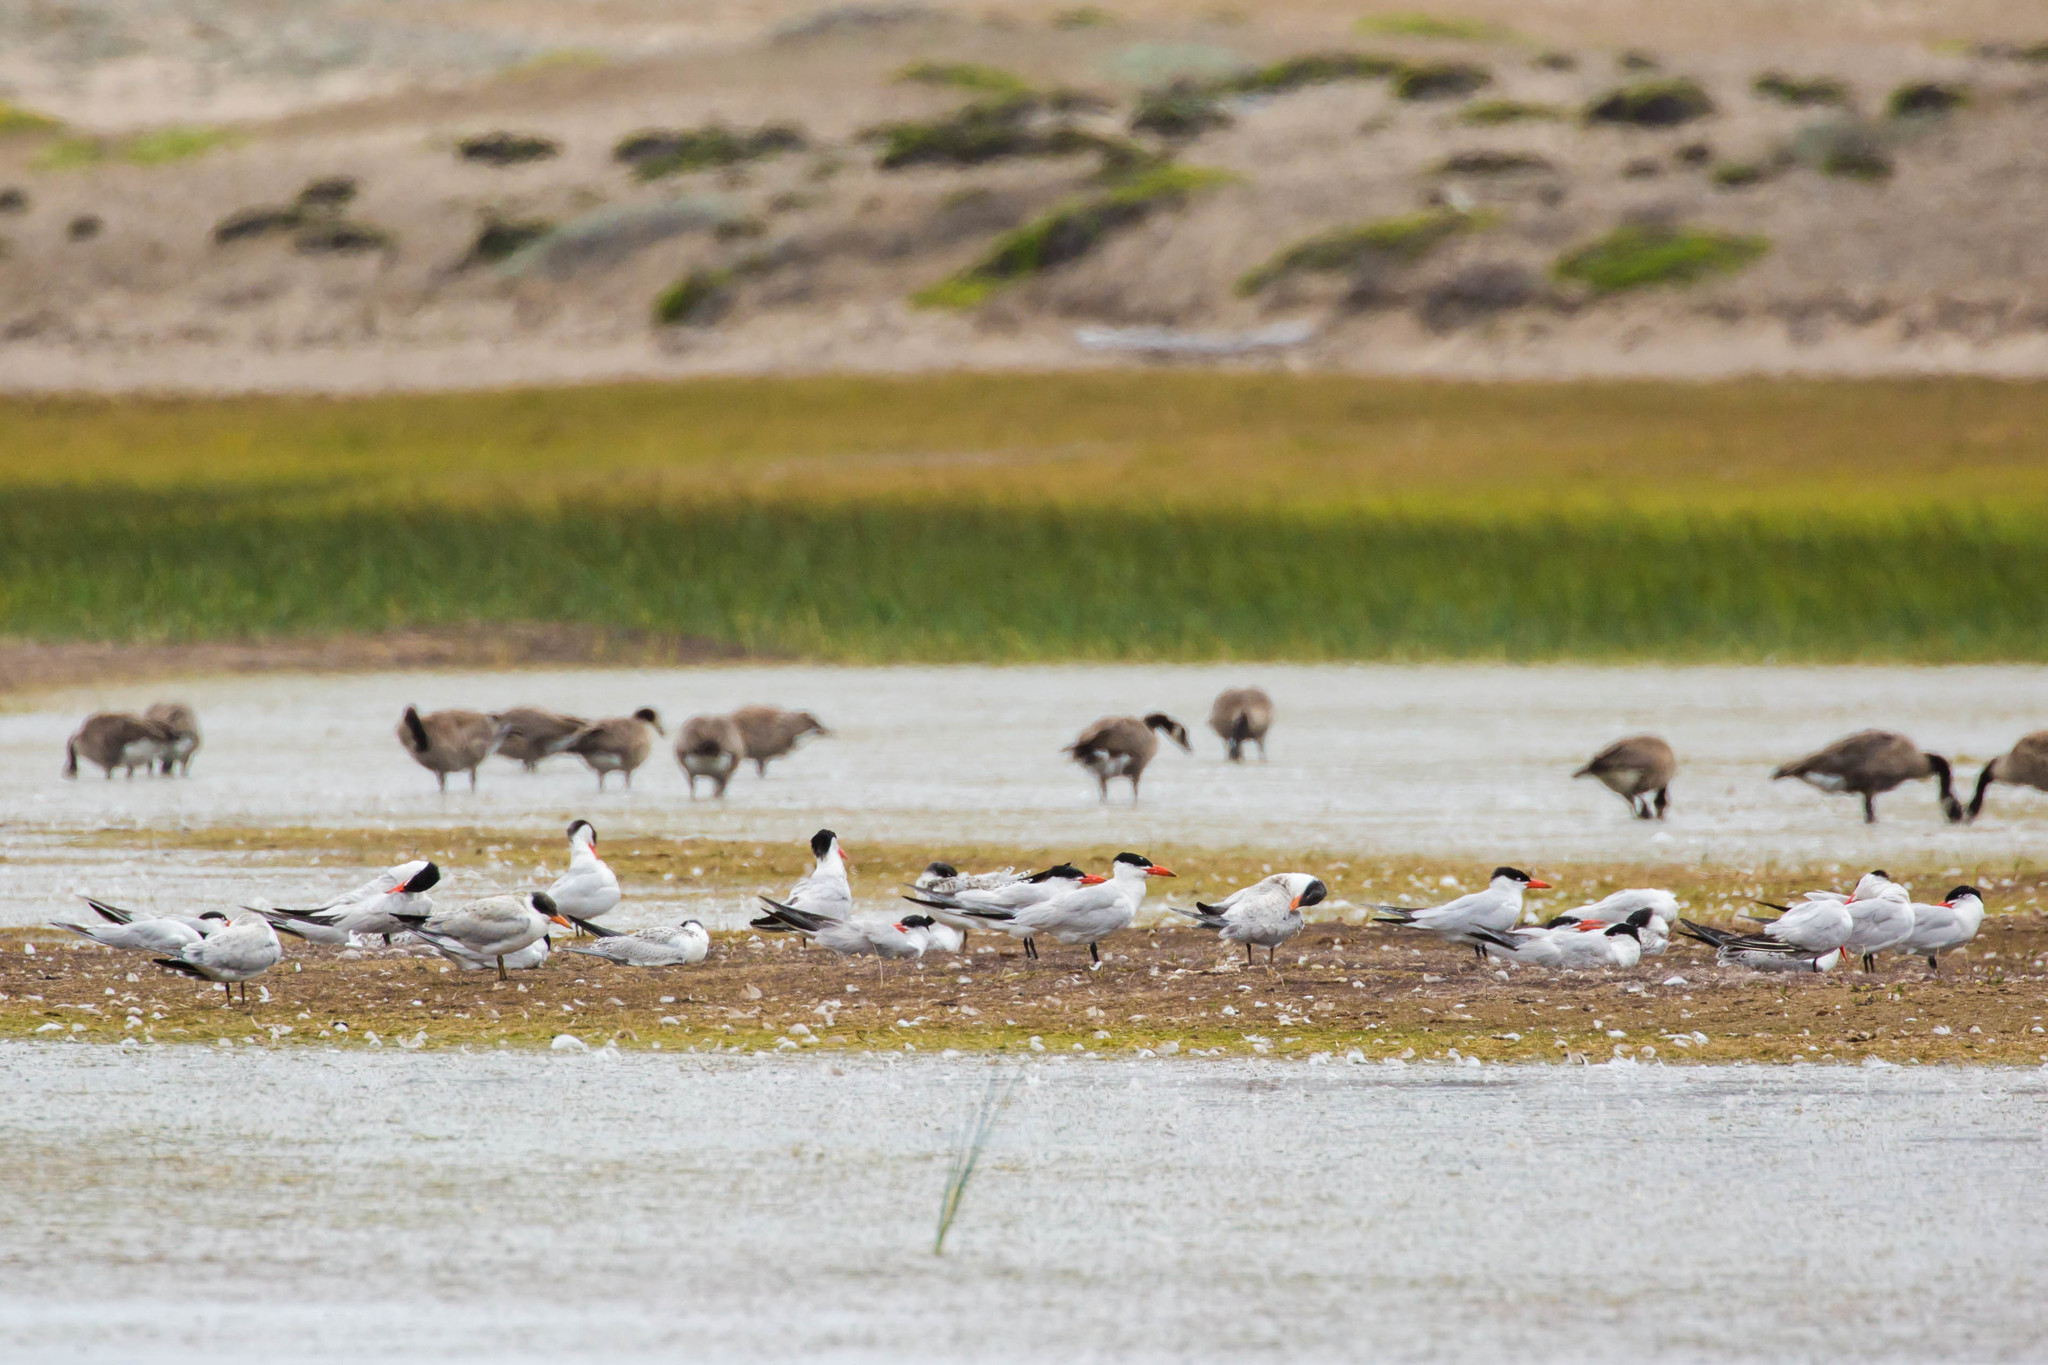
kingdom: Animalia
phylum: Chordata
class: Aves
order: Charadriiformes
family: Laridae
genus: Hydroprogne
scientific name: Hydroprogne caspia
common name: Caspian tern
